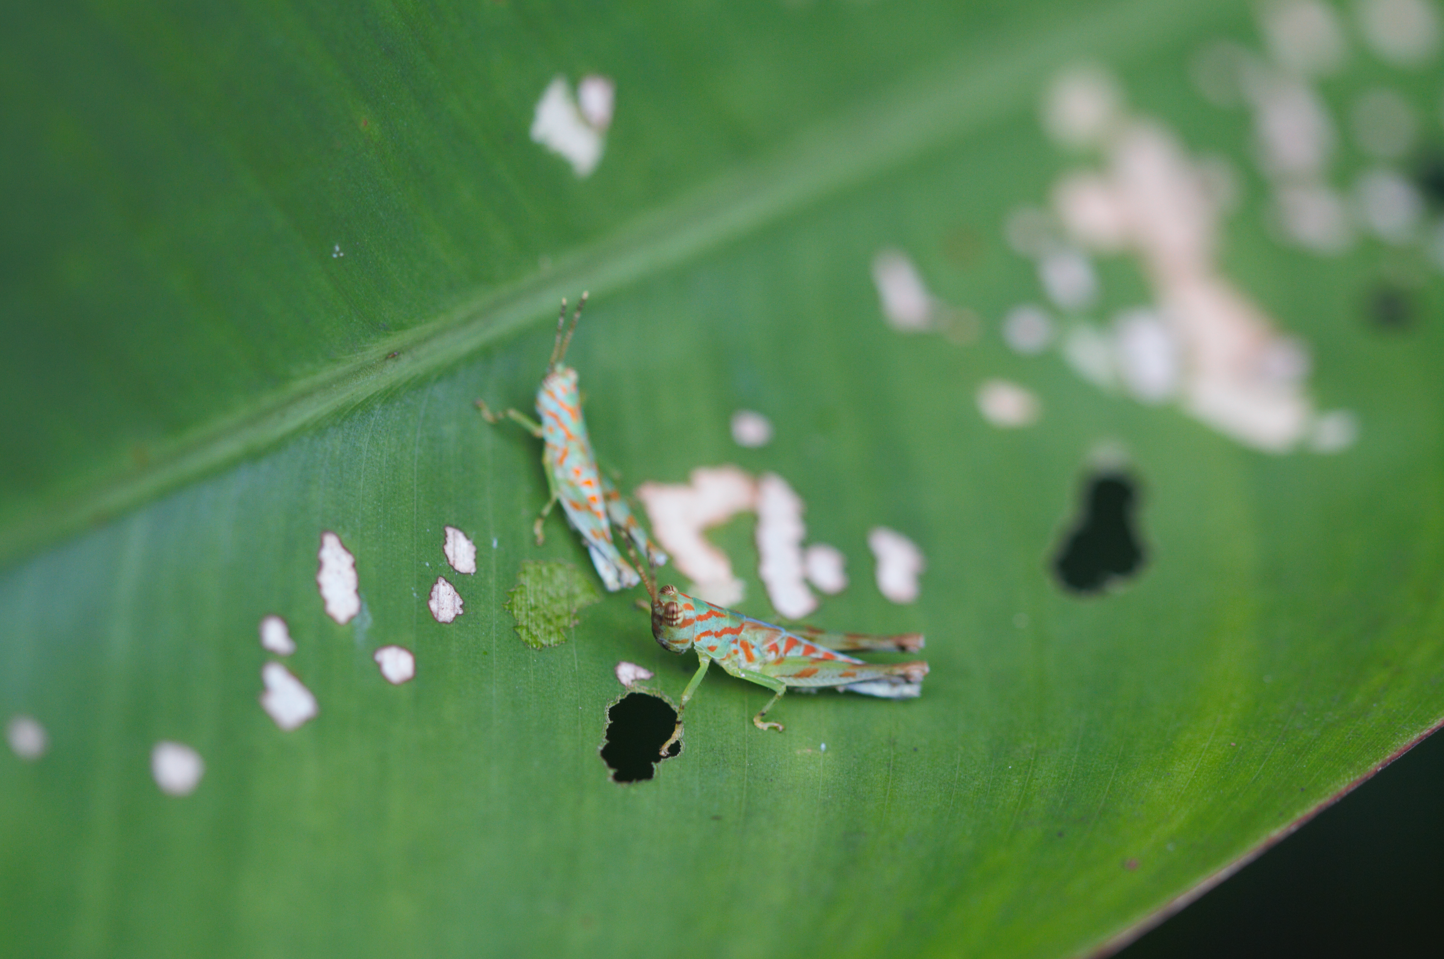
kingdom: Animalia
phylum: Arthropoda
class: Insecta
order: Orthoptera
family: Acrididae
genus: Cornops
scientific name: Cornops
